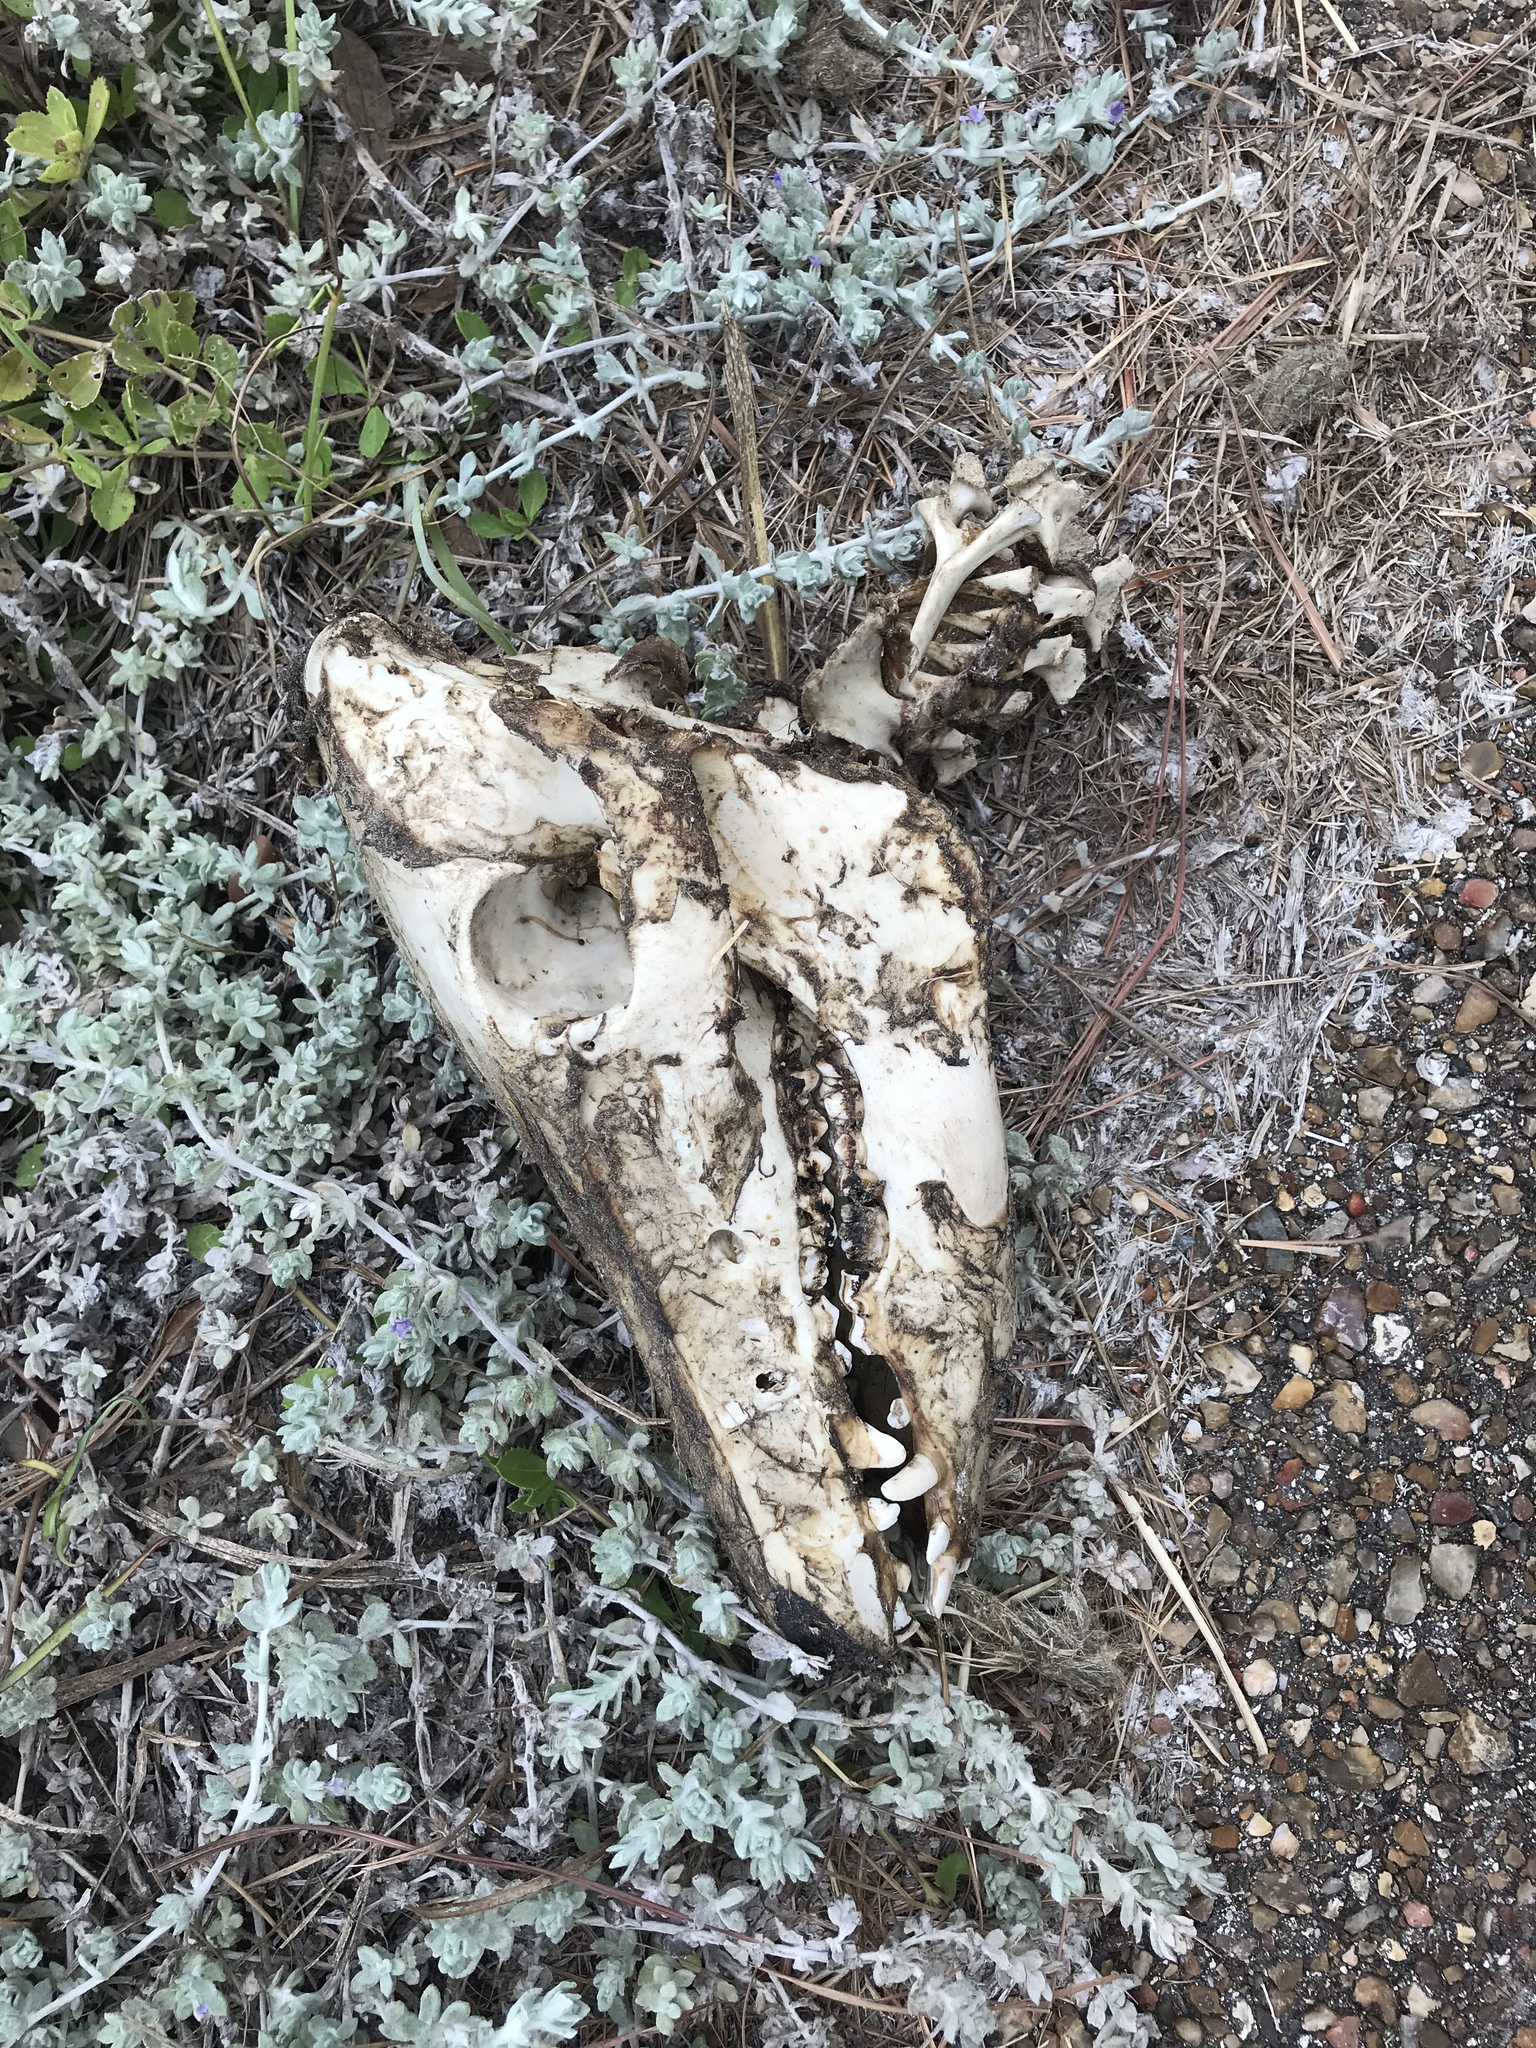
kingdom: Animalia
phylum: Chordata
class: Mammalia
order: Artiodactyla
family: Suidae
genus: Sus
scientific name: Sus scrofa
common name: Wild boar
